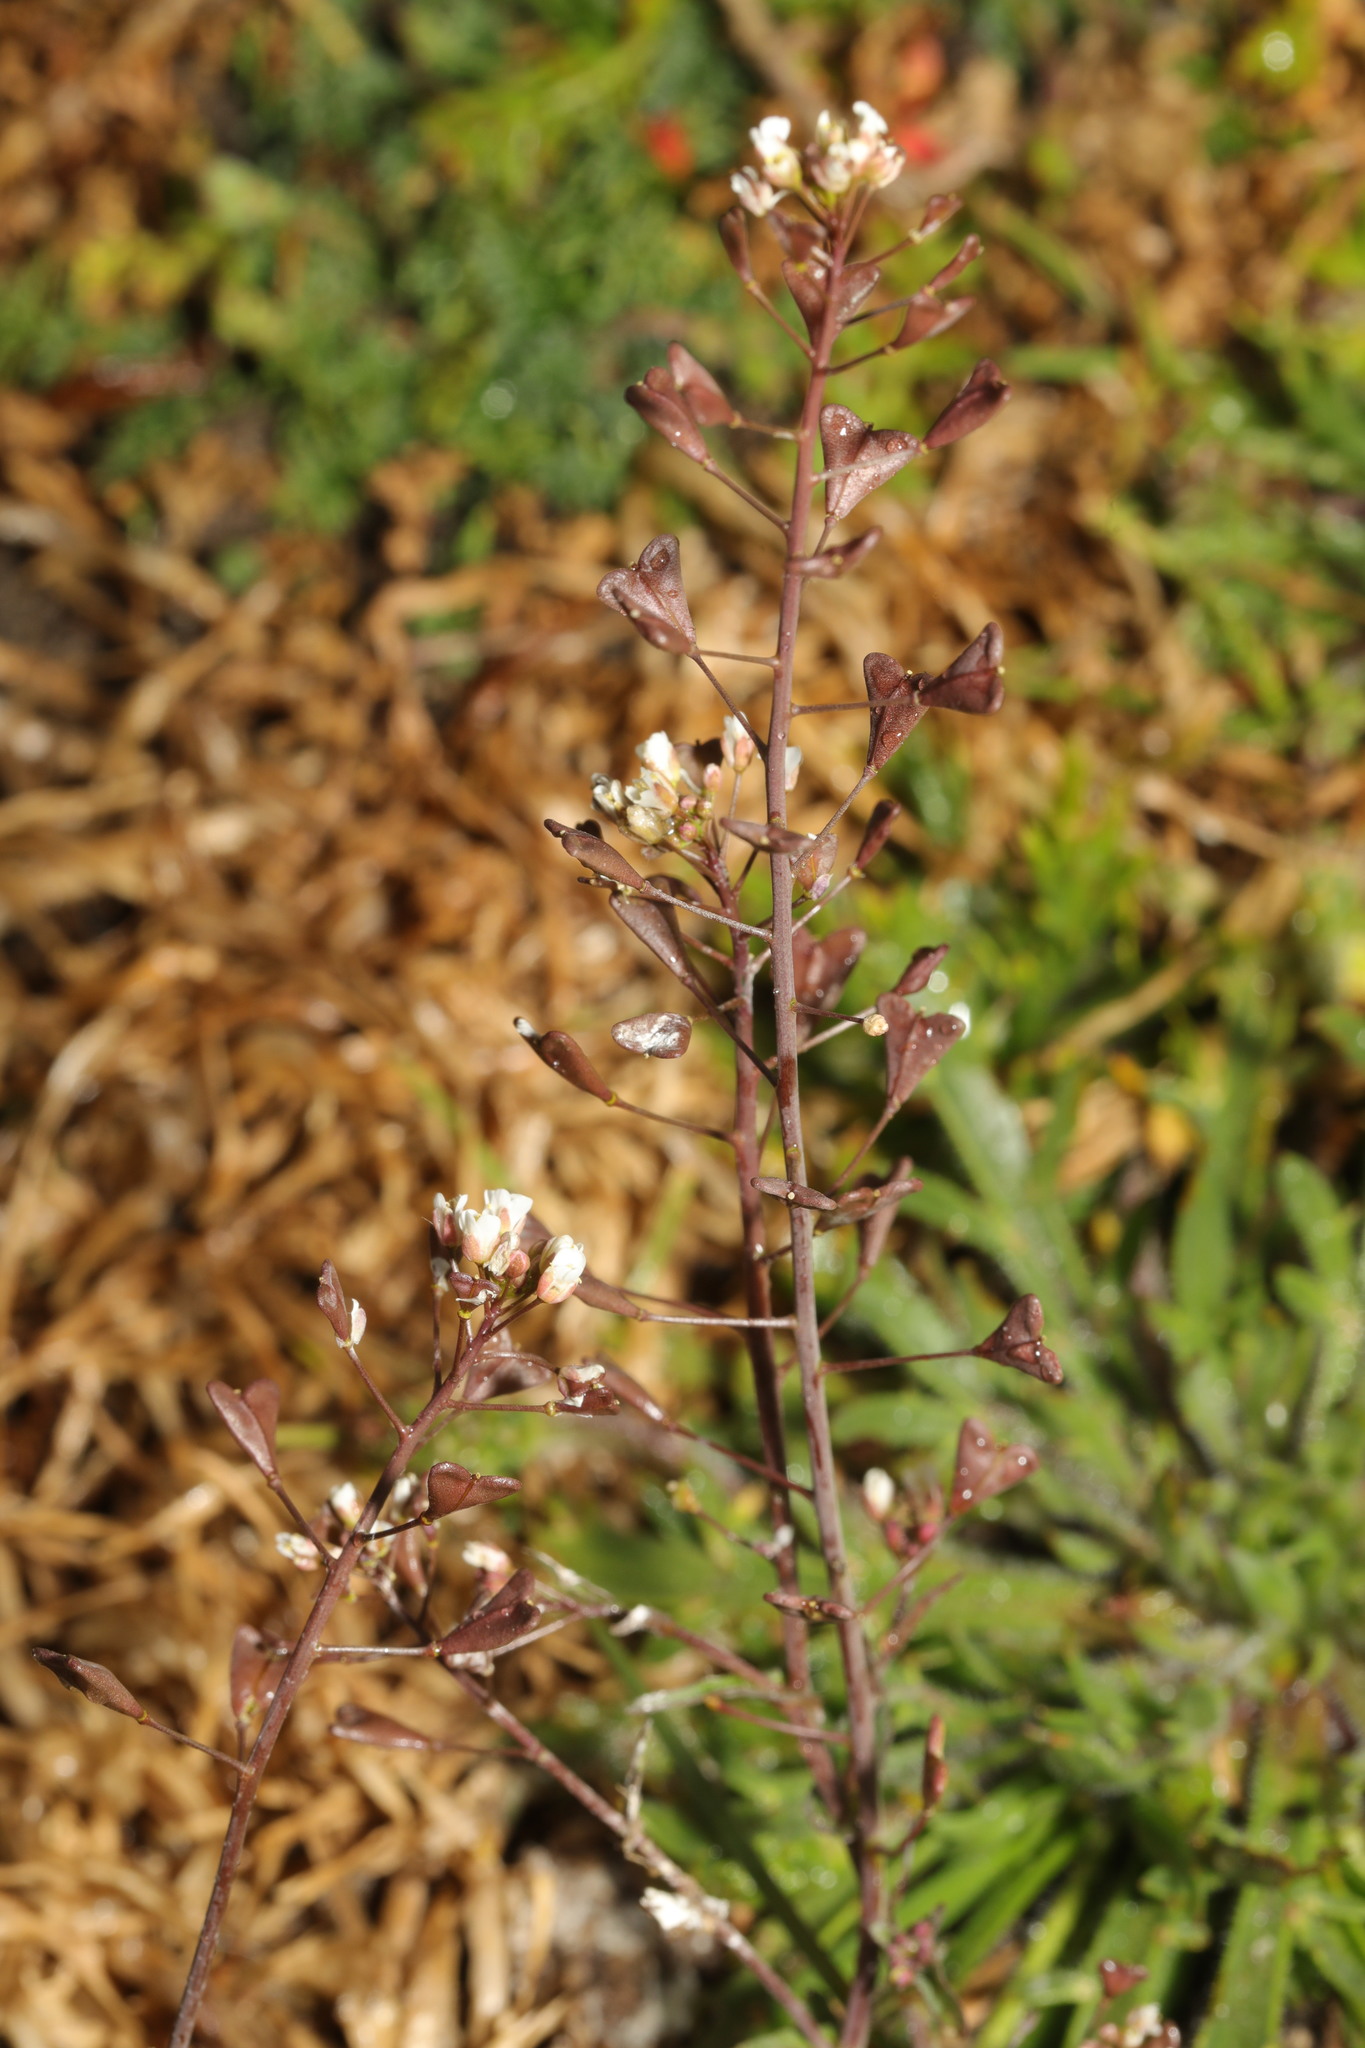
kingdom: Plantae
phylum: Tracheophyta
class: Magnoliopsida
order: Brassicales
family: Brassicaceae
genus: Capsella
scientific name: Capsella bursa-pastoris
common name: Shepherd's purse
